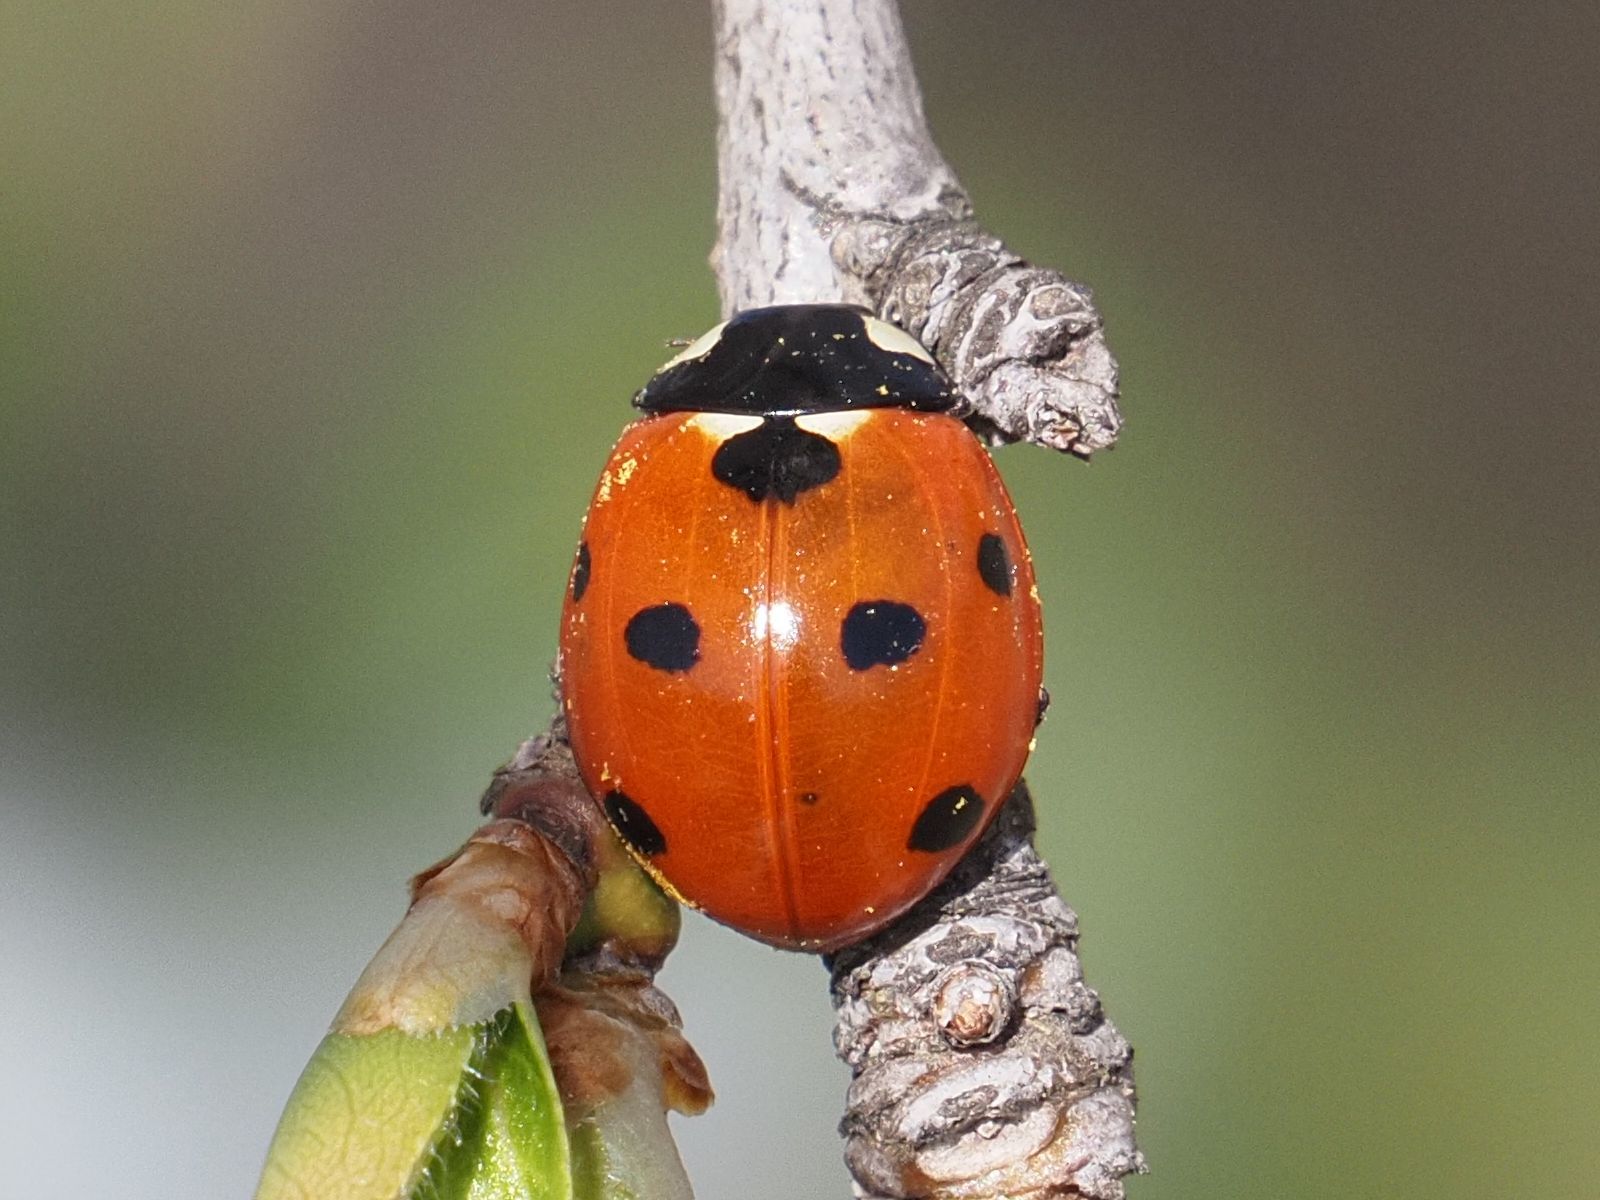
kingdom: Animalia
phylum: Arthropoda
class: Insecta
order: Coleoptera
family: Coccinellidae
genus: Coccinella
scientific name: Coccinella septempunctata
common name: Sevenspotted lady beetle
